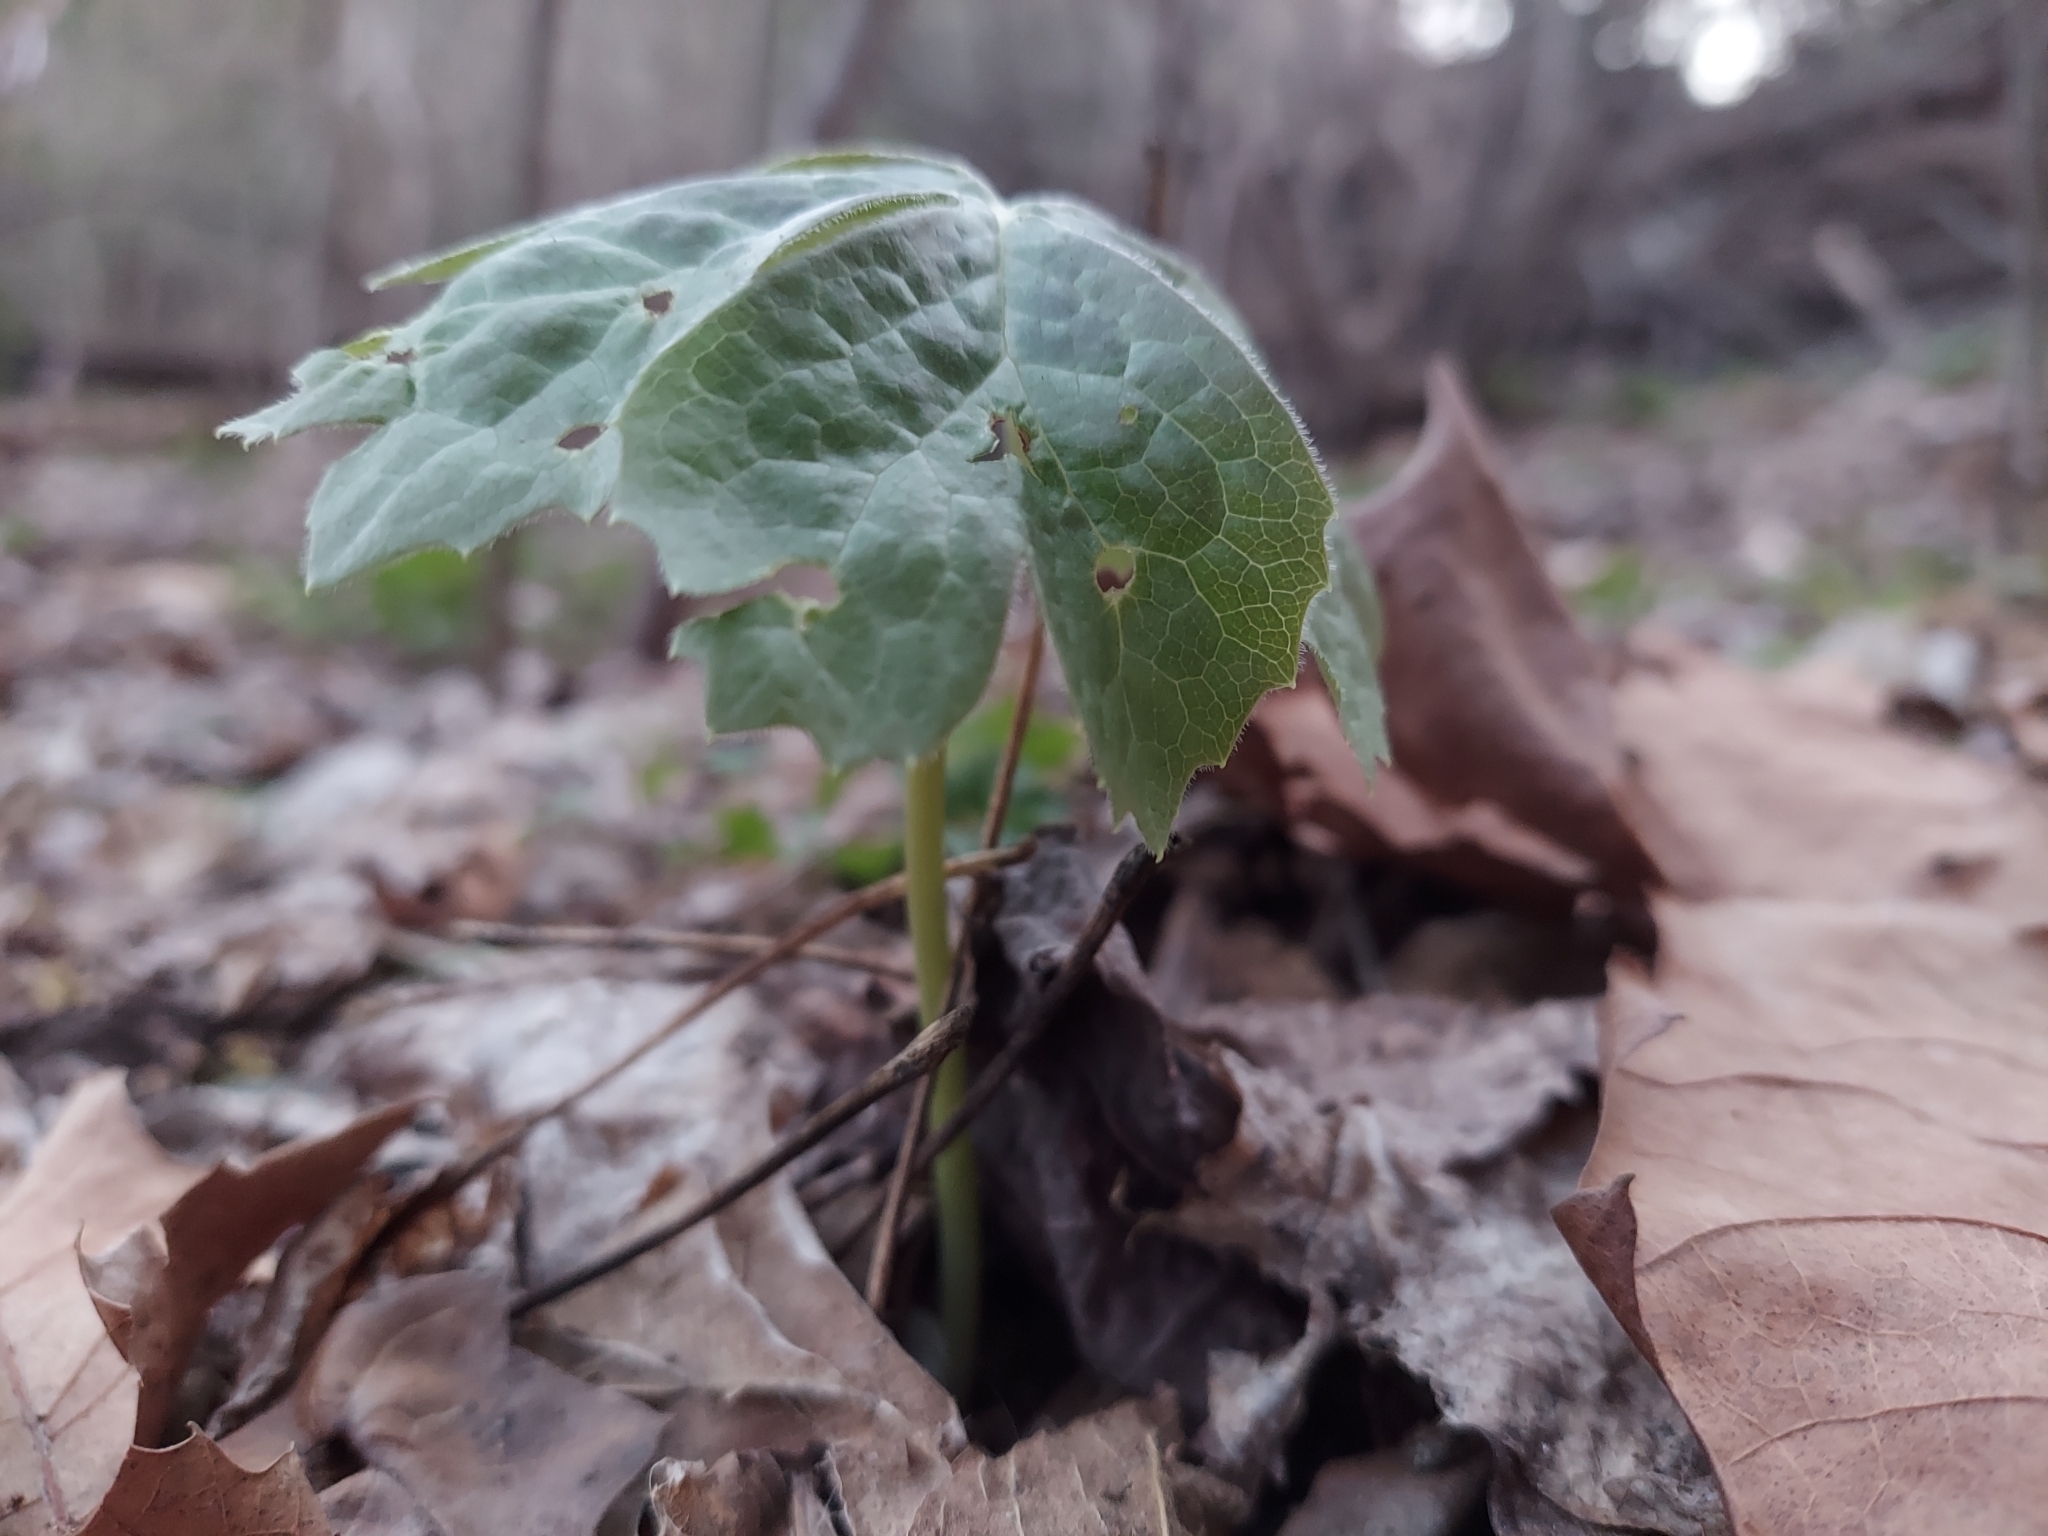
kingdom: Plantae
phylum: Tracheophyta
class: Magnoliopsida
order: Ranunculales
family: Berberidaceae
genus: Podophyllum
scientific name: Podophyllum peltatum
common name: Wild mandrake
